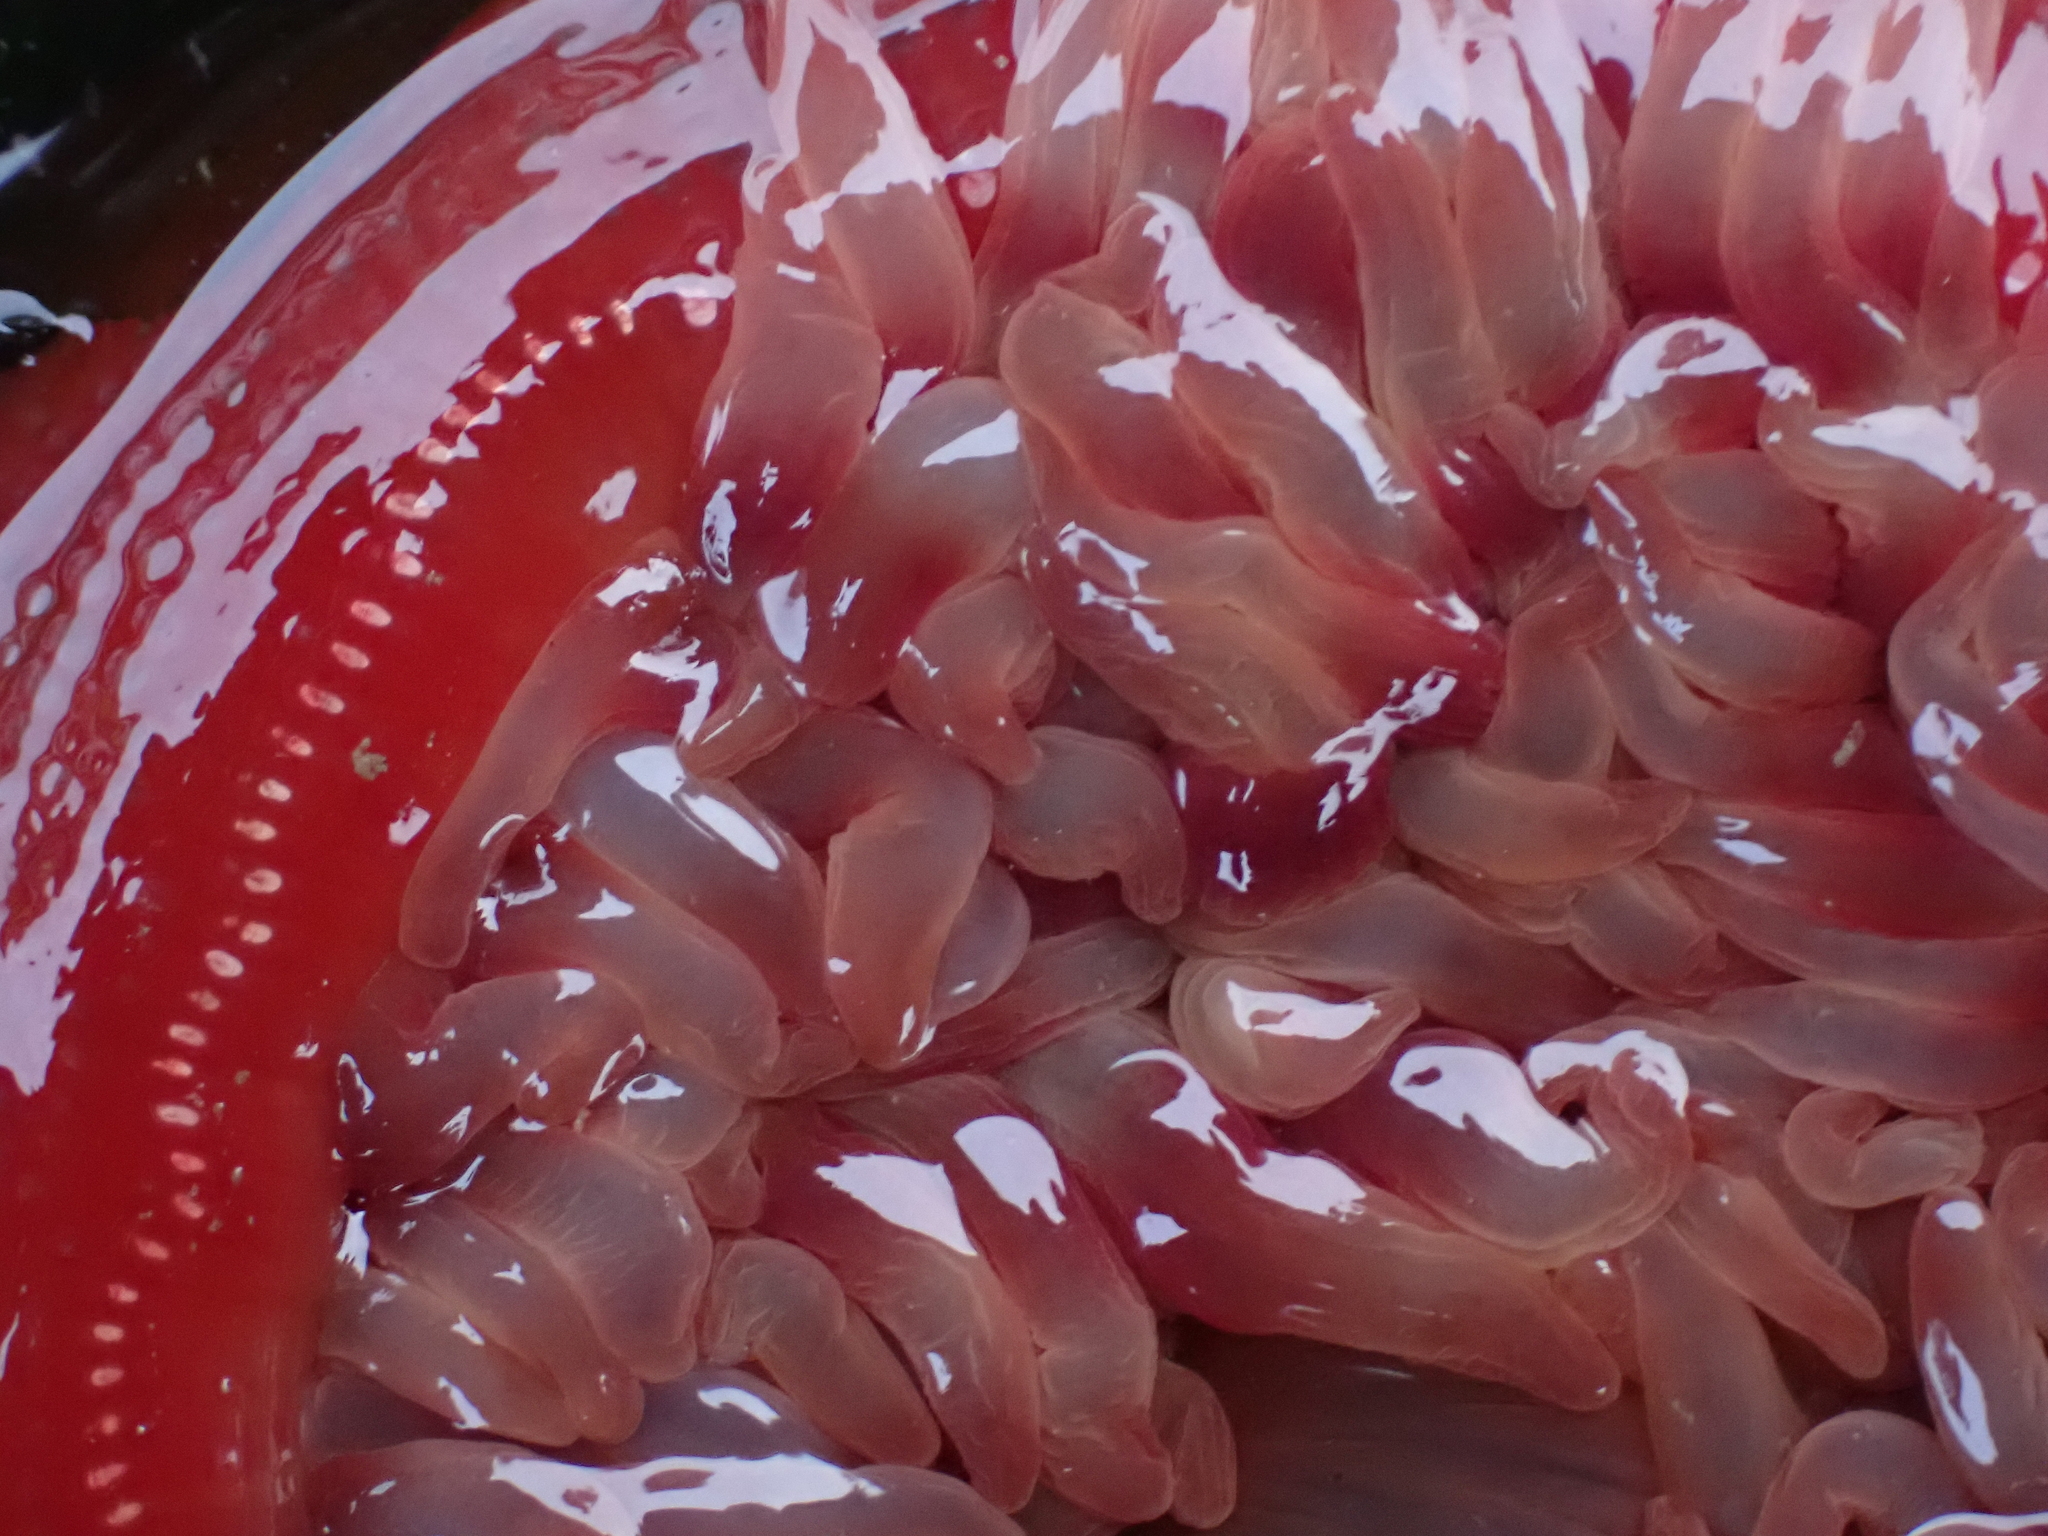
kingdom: Animalia
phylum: Cnidaria
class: Anthozoa
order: Actiniaria
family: Actiniidae
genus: Urticina
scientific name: Urticina grebelnyi
